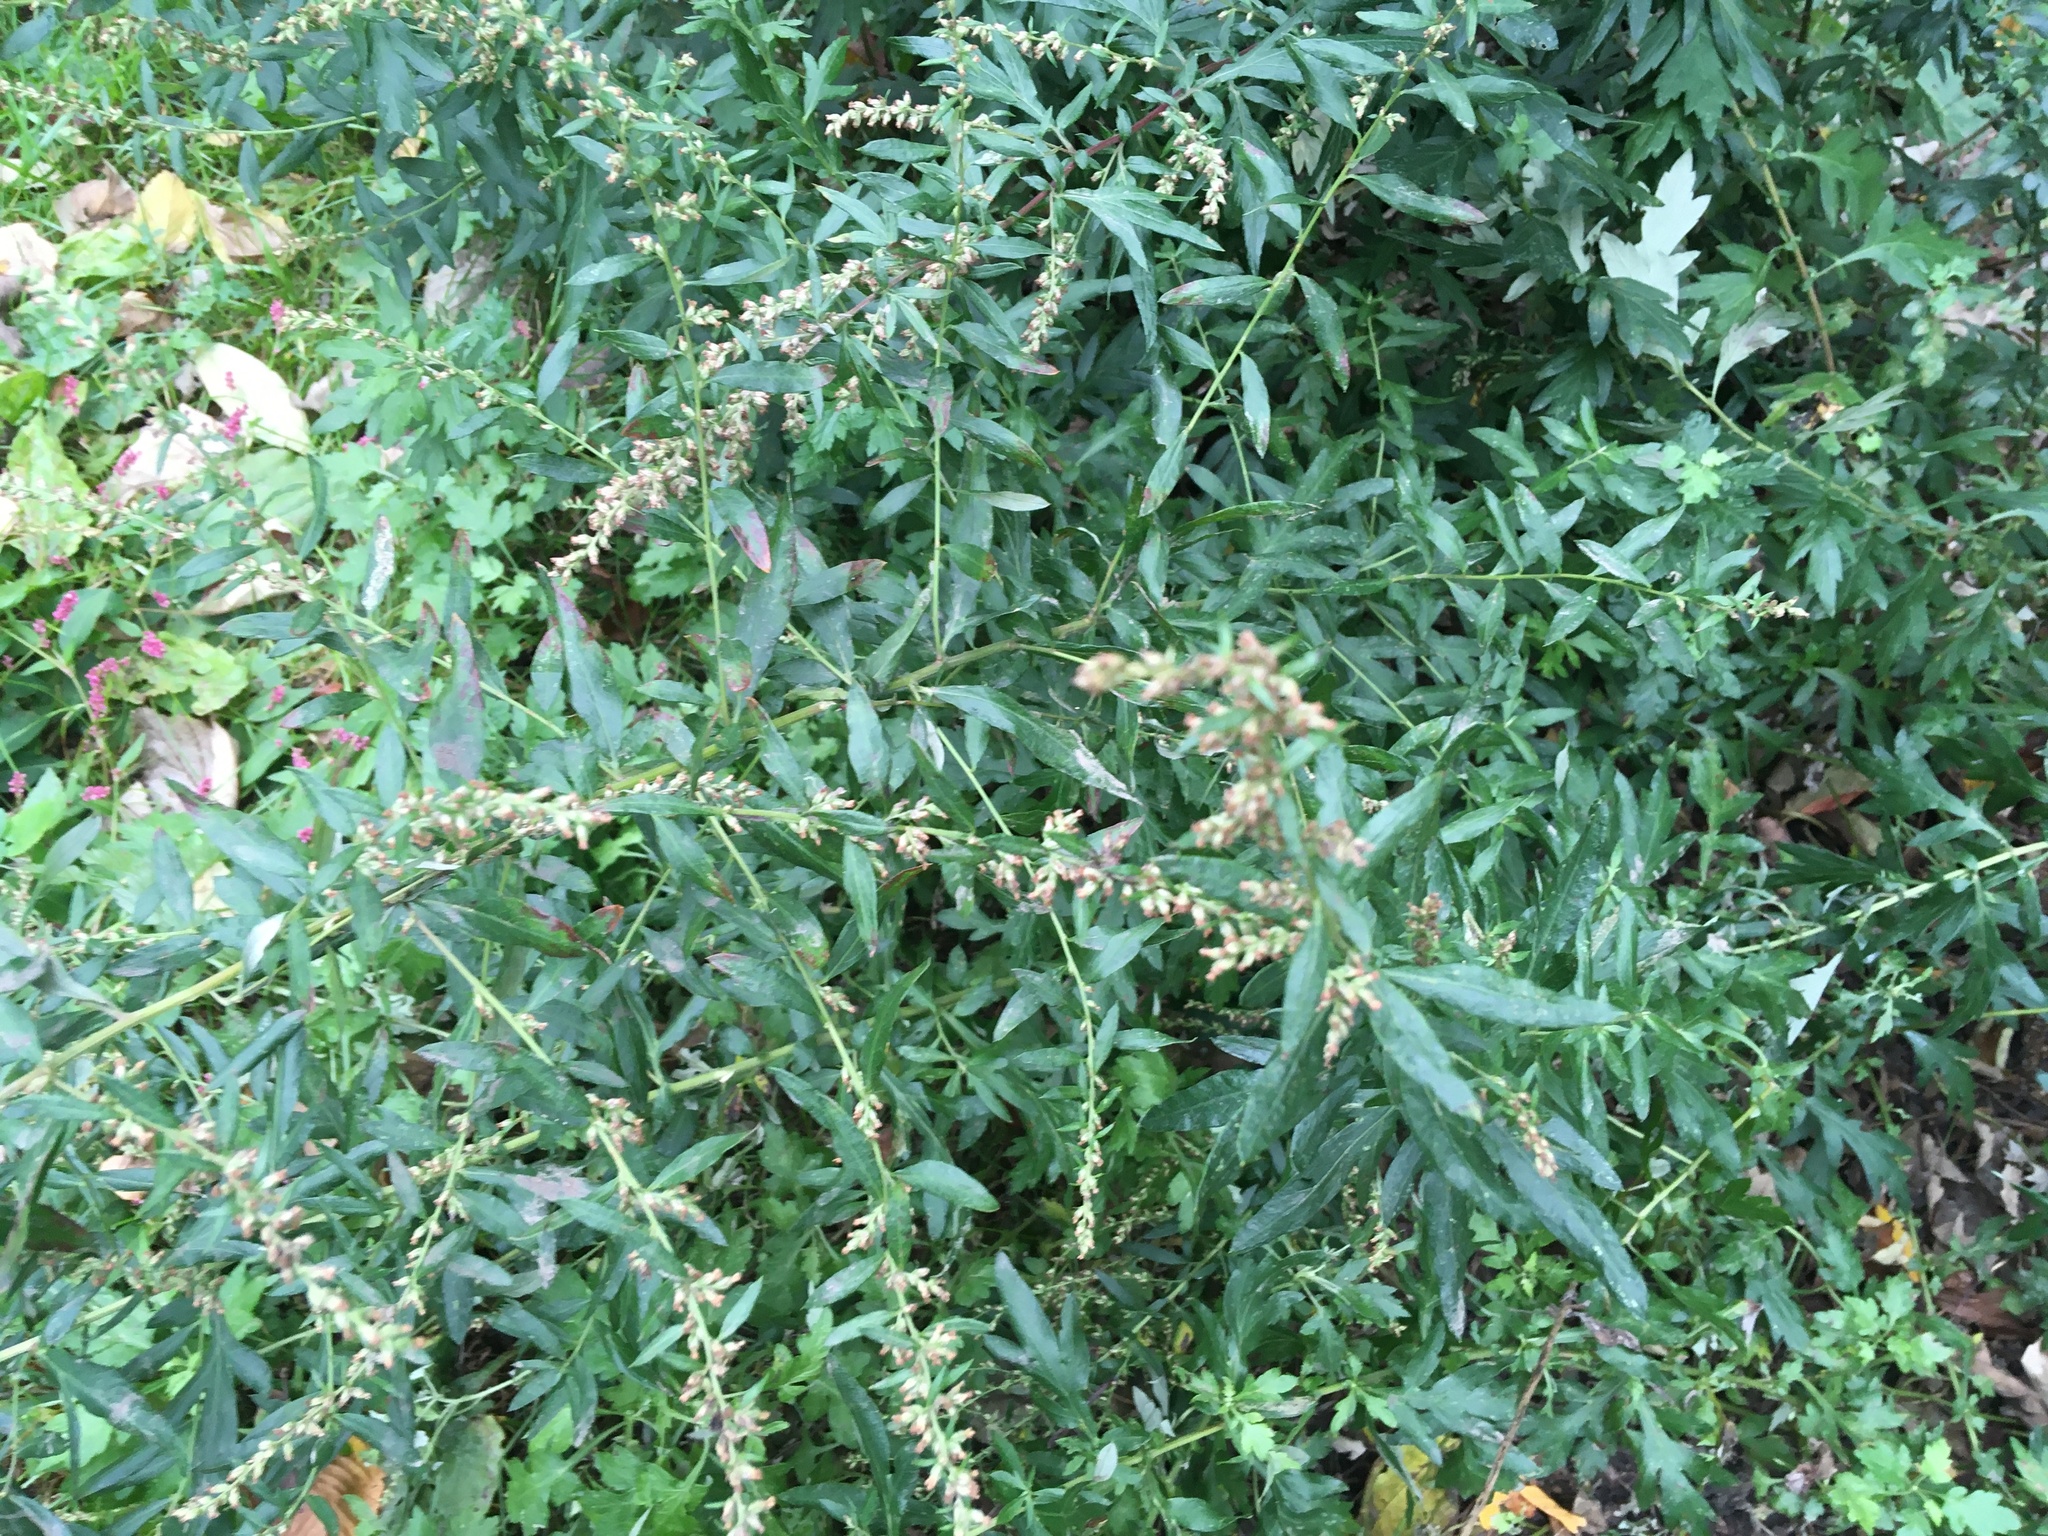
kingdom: Plantae
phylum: Tracheophyta
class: Magnoliopsida
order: Asterales
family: Asteraceae
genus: Artemisia
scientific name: Artemisia vulgaris
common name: Mugwort
